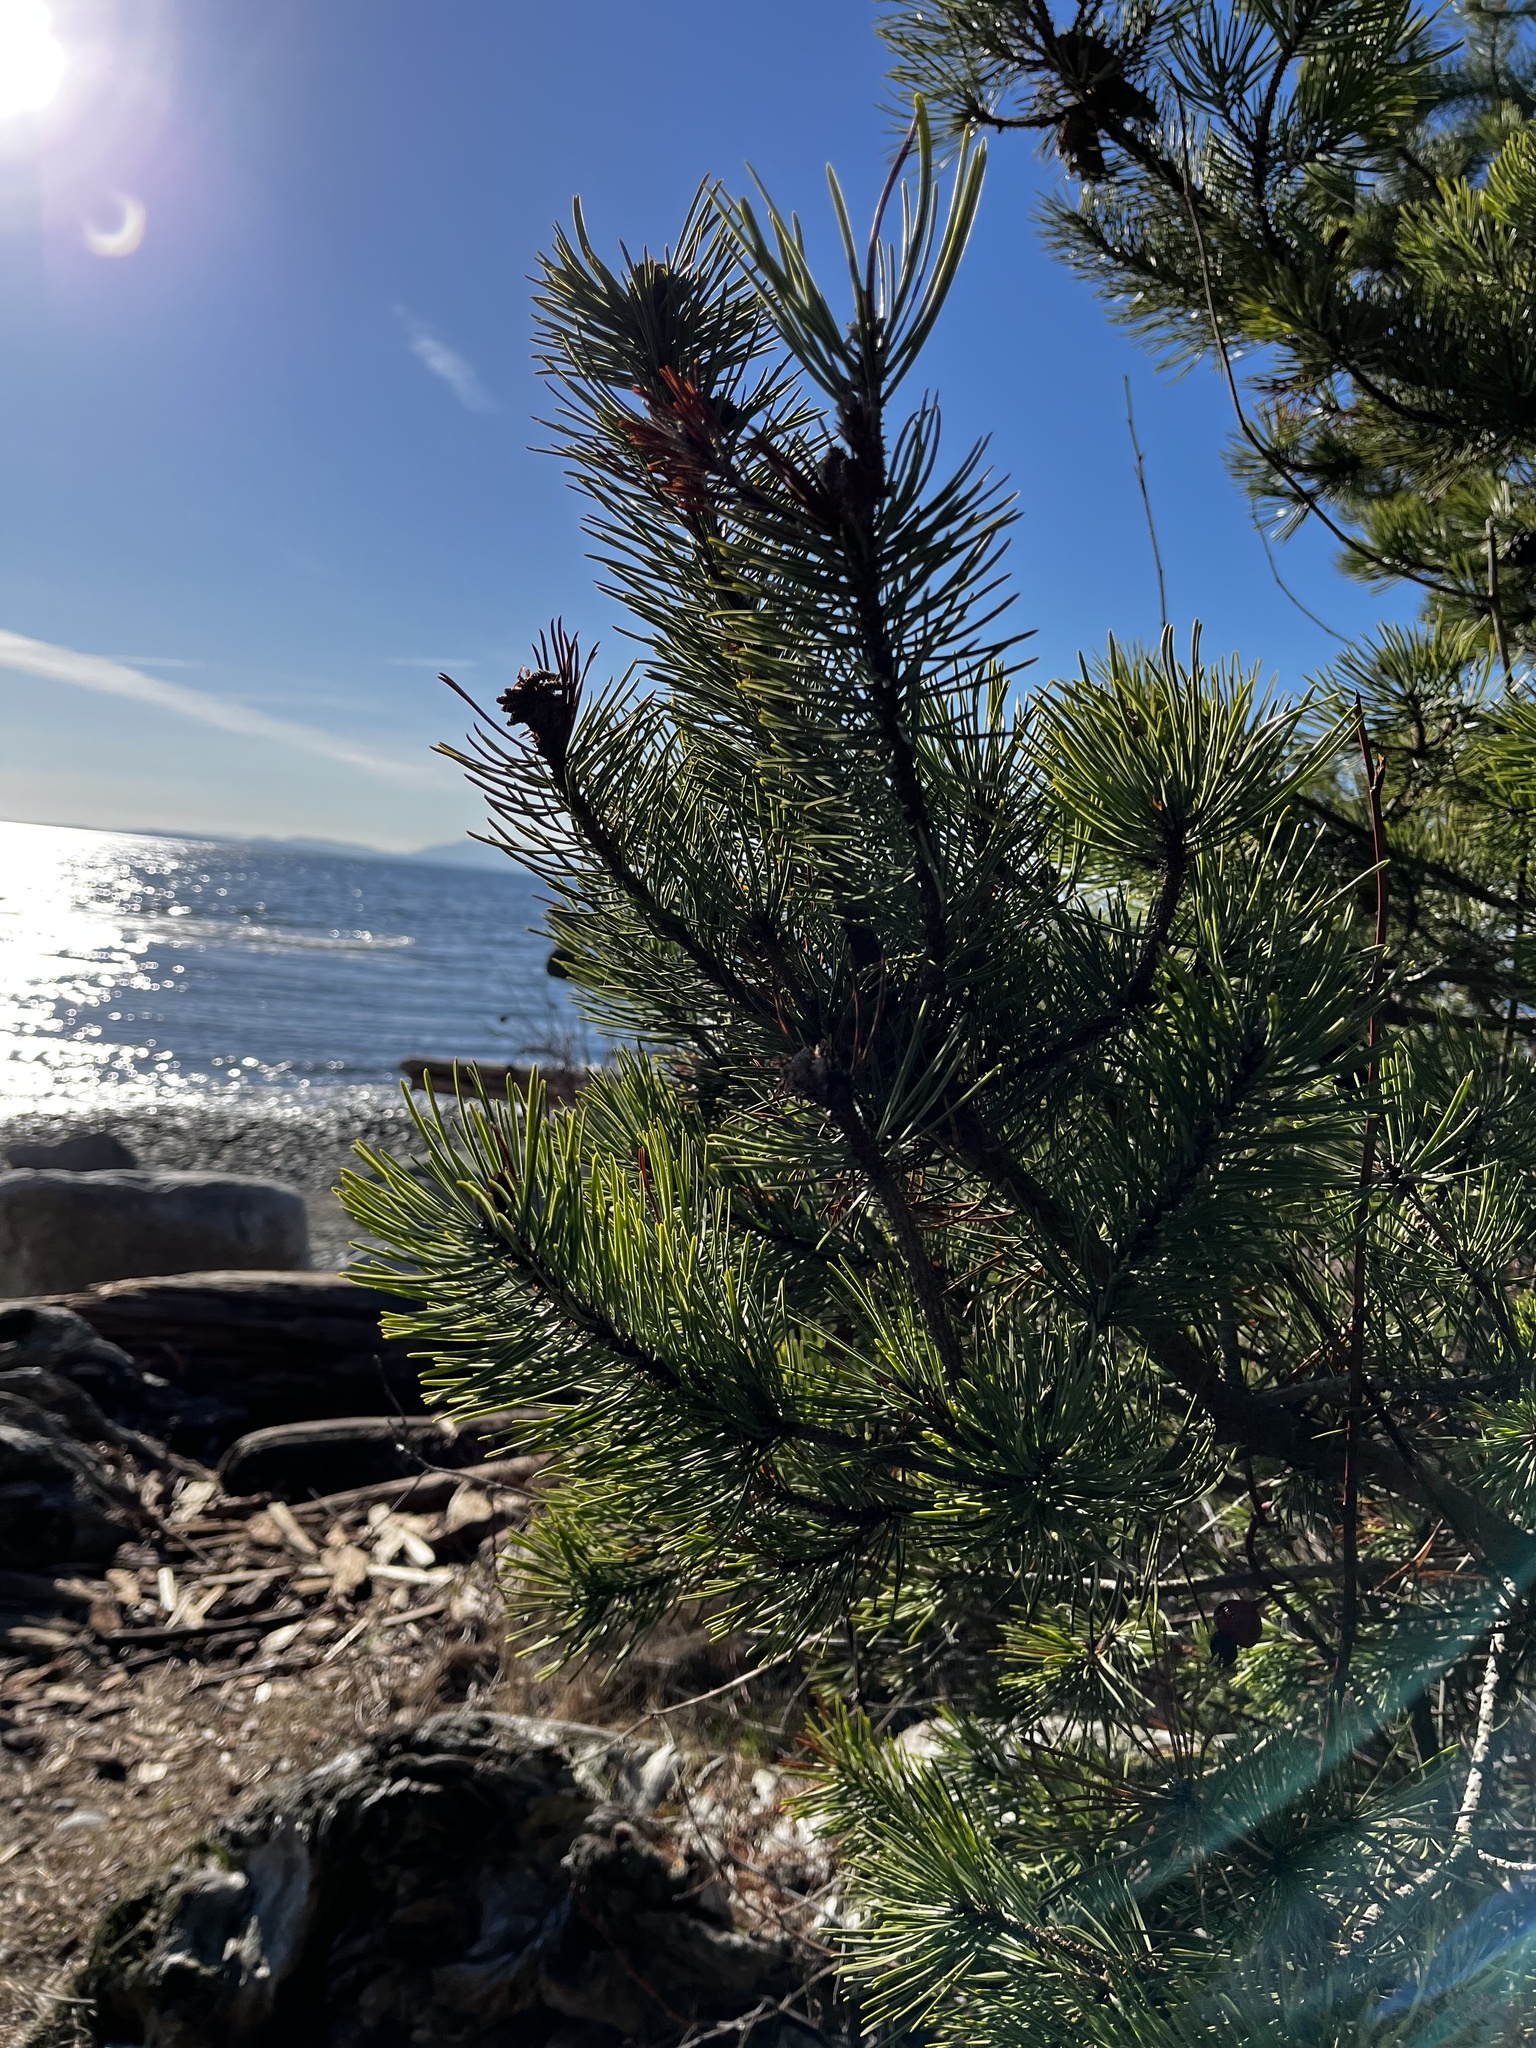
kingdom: Plantae
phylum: Tracheophyta
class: Pinopsida
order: Pinales
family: Pinaceae
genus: Pinus
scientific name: Pinus contorta
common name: Lodgepole pine
